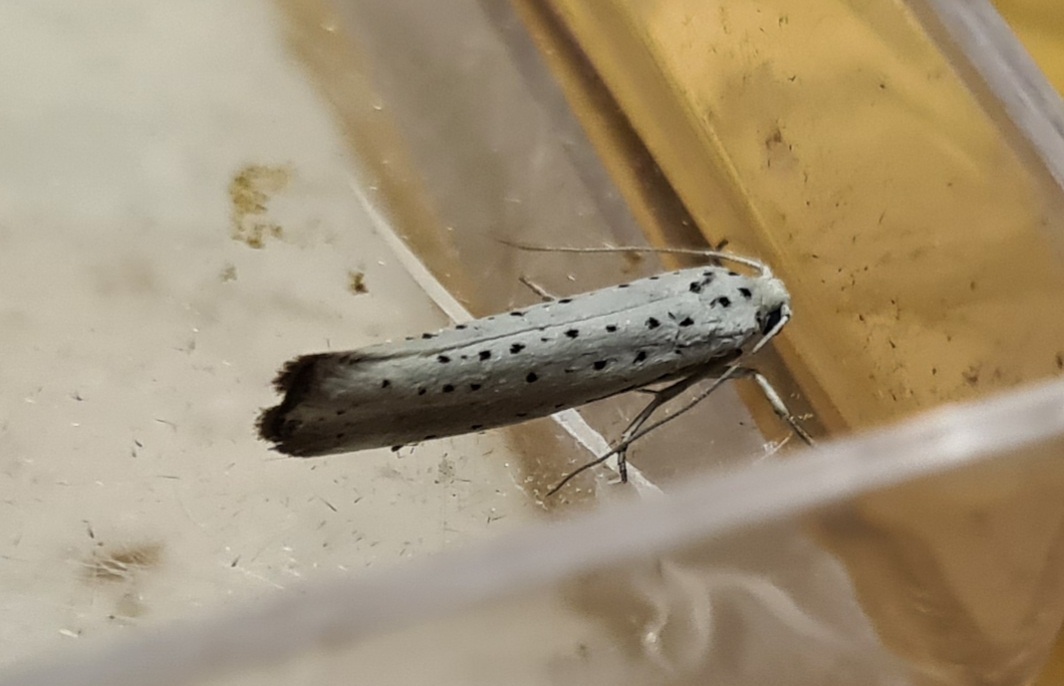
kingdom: Animalia
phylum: Arthropoda
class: Insecta
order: Lepidoptera
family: Yponomeutidae
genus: Yponomeuta
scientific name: Yponomeuta padella
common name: Orchard ermine
